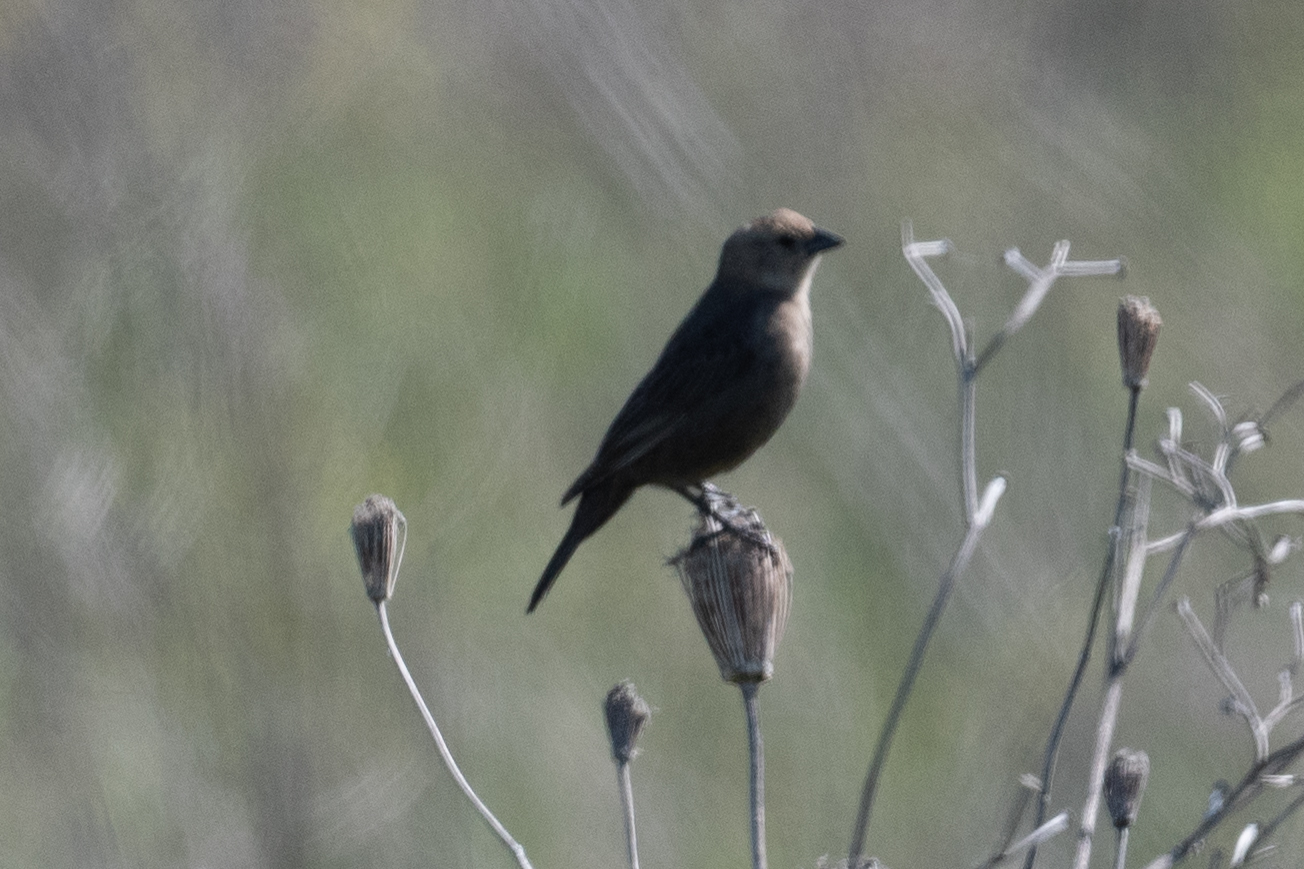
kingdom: Animalia
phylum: Chordata
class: Aves
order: Passeriformes
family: Icteridae
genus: Molothrus
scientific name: Molothrus ater
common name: Brown-headed cowbird
